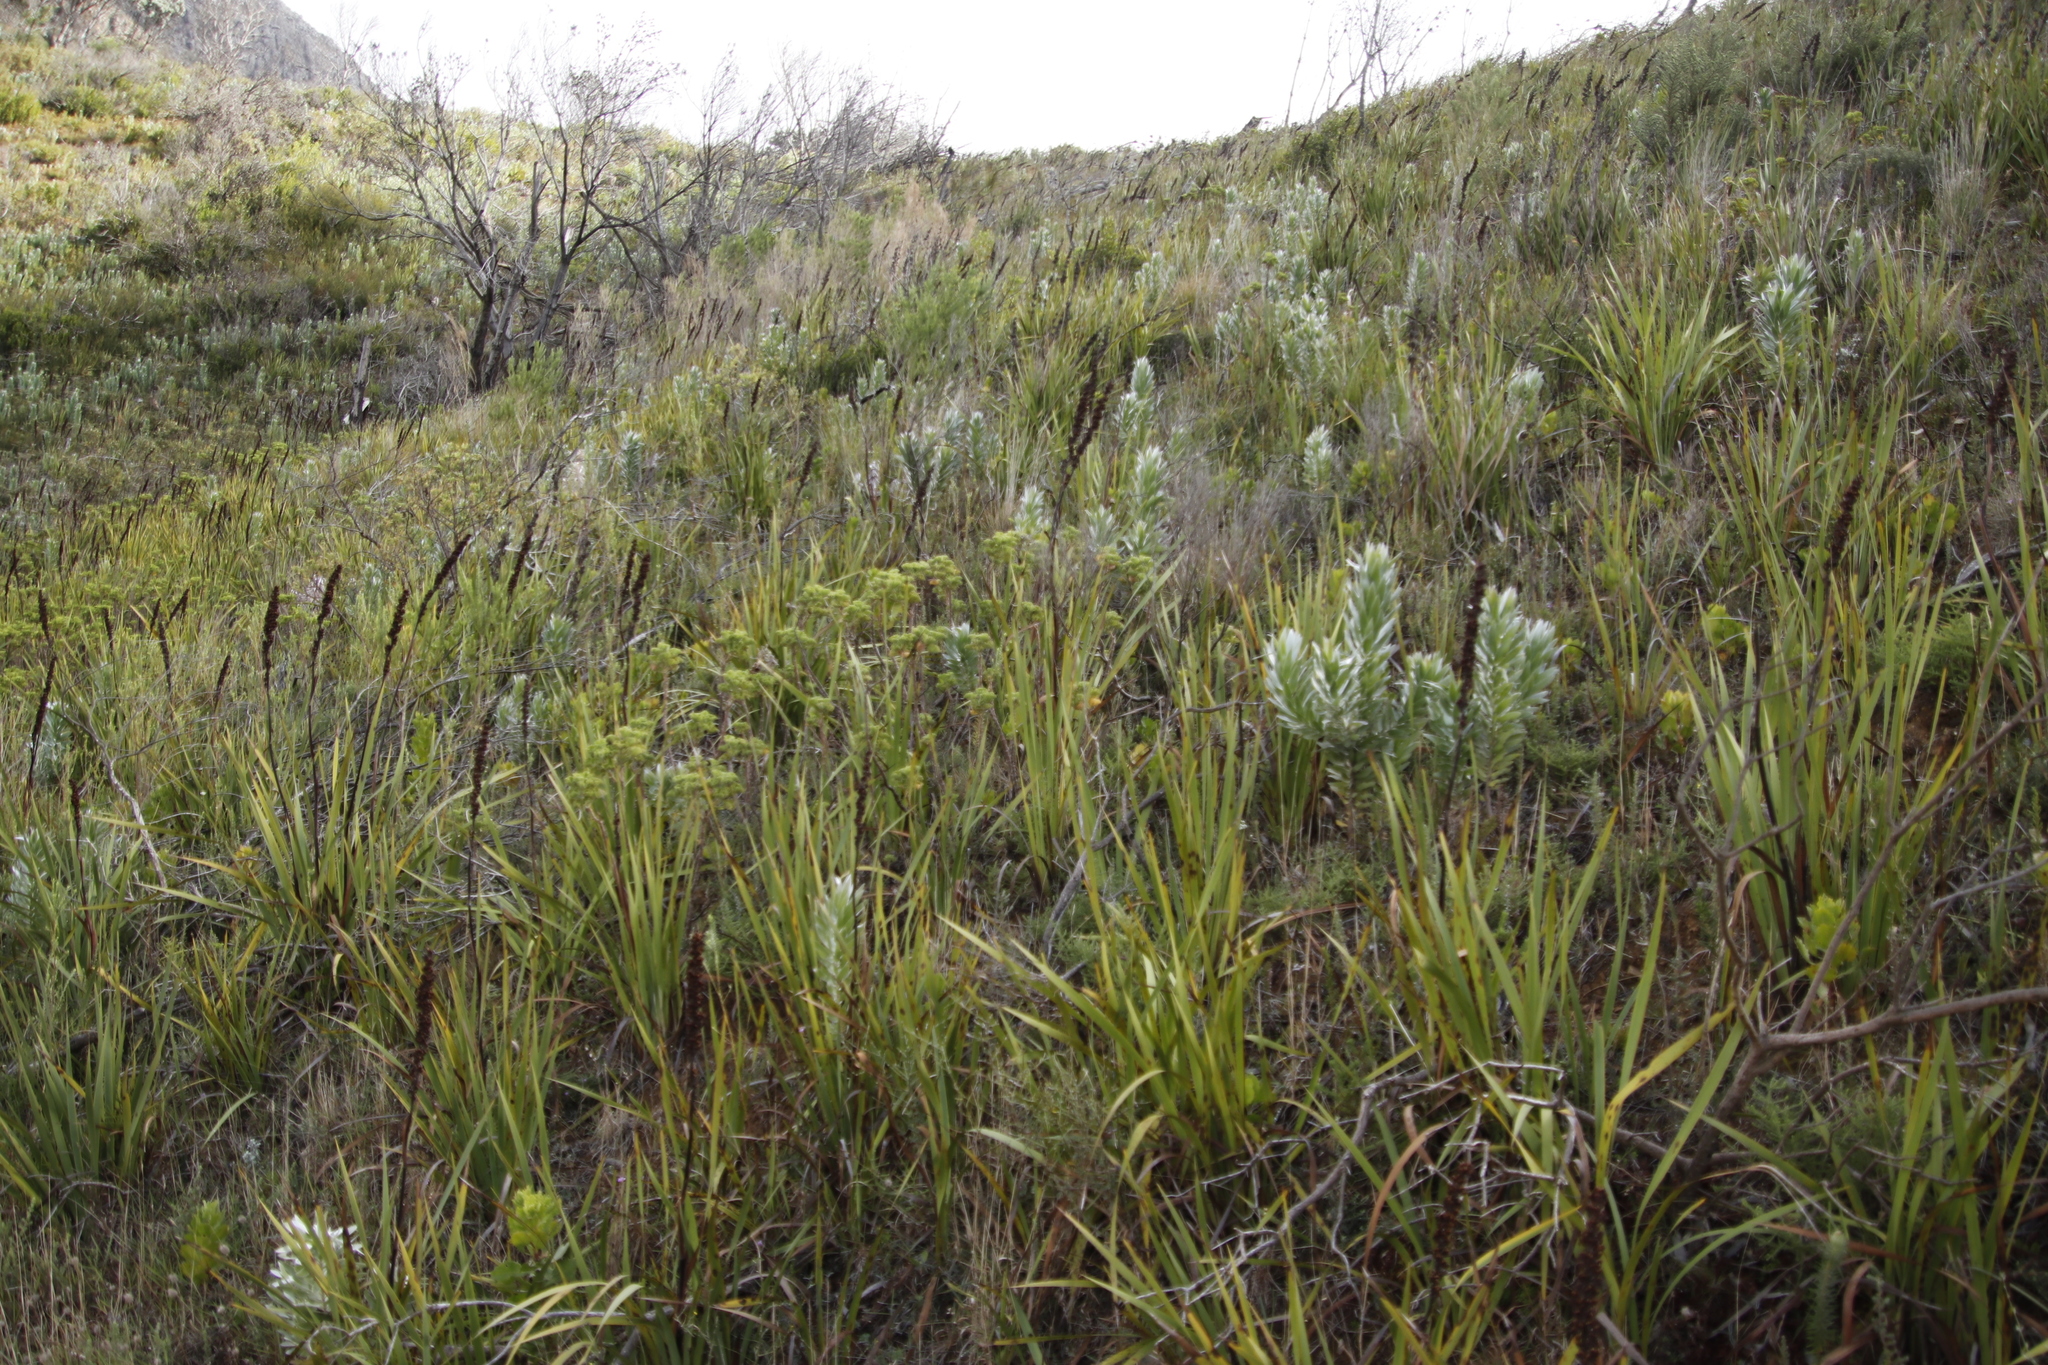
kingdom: Plantae
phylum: Tracheophyta
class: Liliopsida
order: Asparagales
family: Iridaceae
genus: Aristea
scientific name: Aristea capitata
